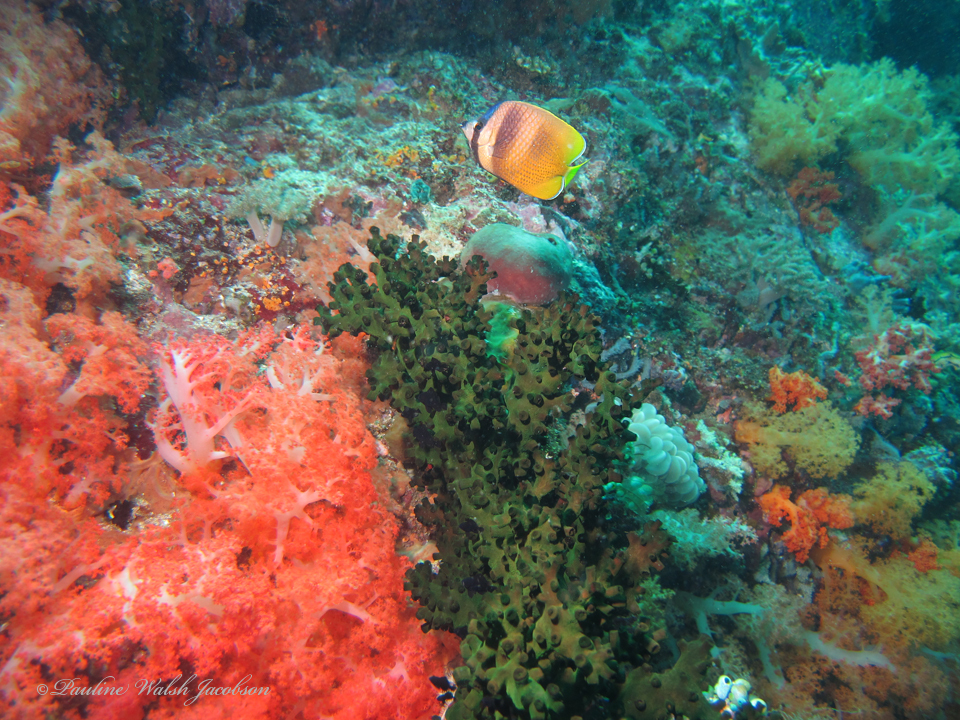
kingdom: Animalia
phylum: Chordata
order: Perciformes
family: Chaetodontidae
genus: Chaetodon
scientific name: Chaetodon kleinii
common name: Klein's butterflyfish
